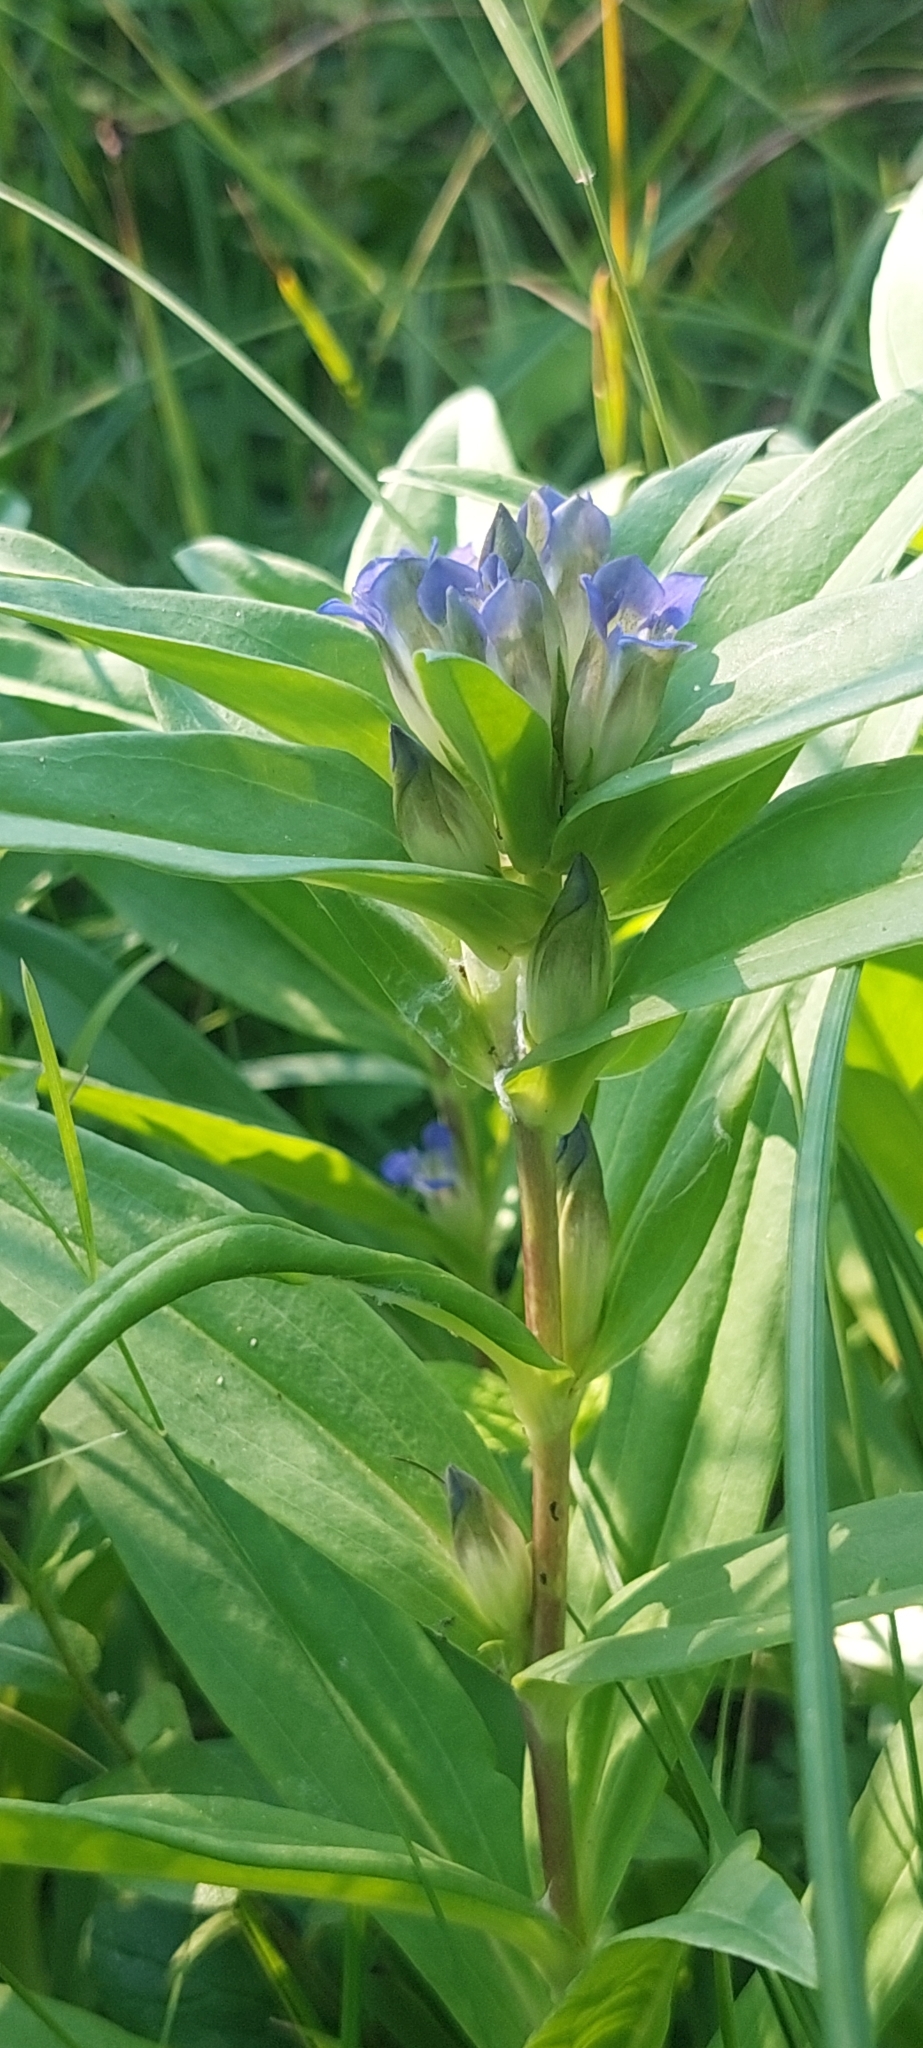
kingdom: Plantae
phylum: Tracheophyta
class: Magnoliopsida
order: Gentianales
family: Gentianaceae
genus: Gentiana
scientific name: Gentiana cruciata
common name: Cross gentian
